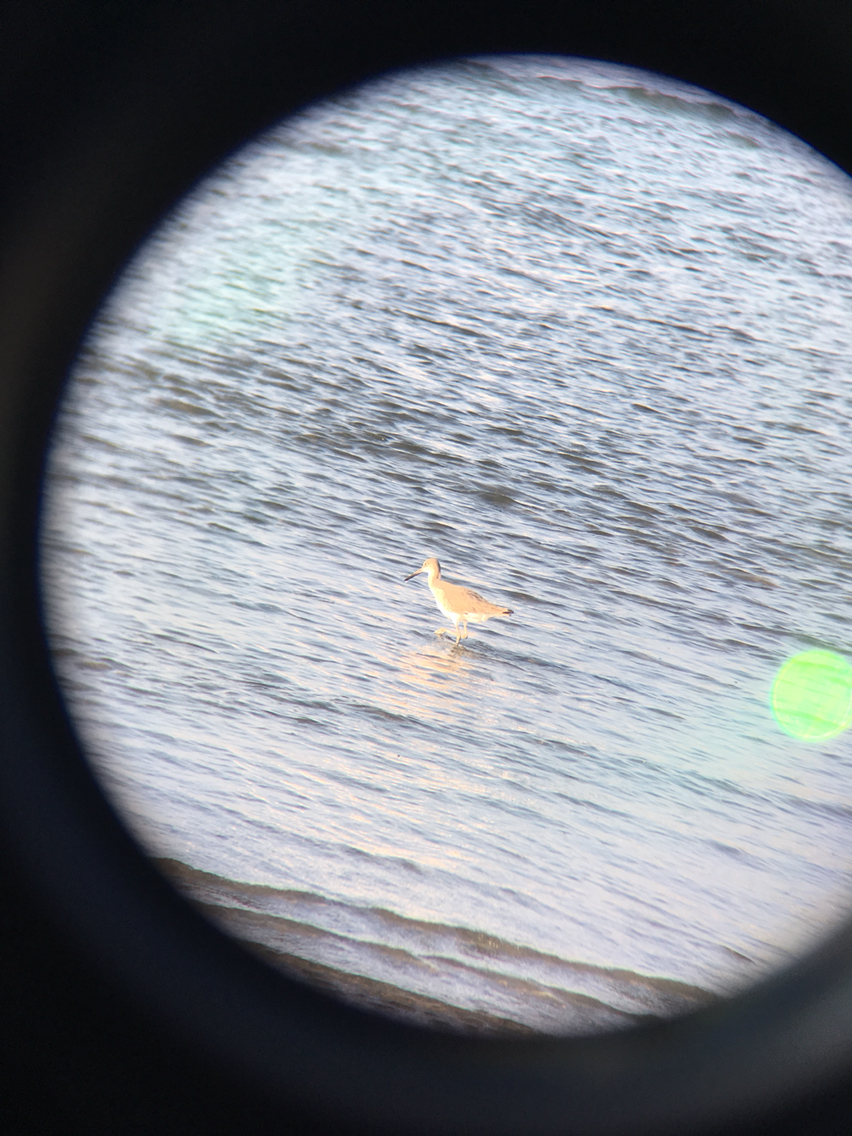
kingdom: Animalia
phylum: Chordata
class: Aves
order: Charadriiformes
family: Scolopacidae
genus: Tringa
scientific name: Tringa semipalmata
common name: Willet
